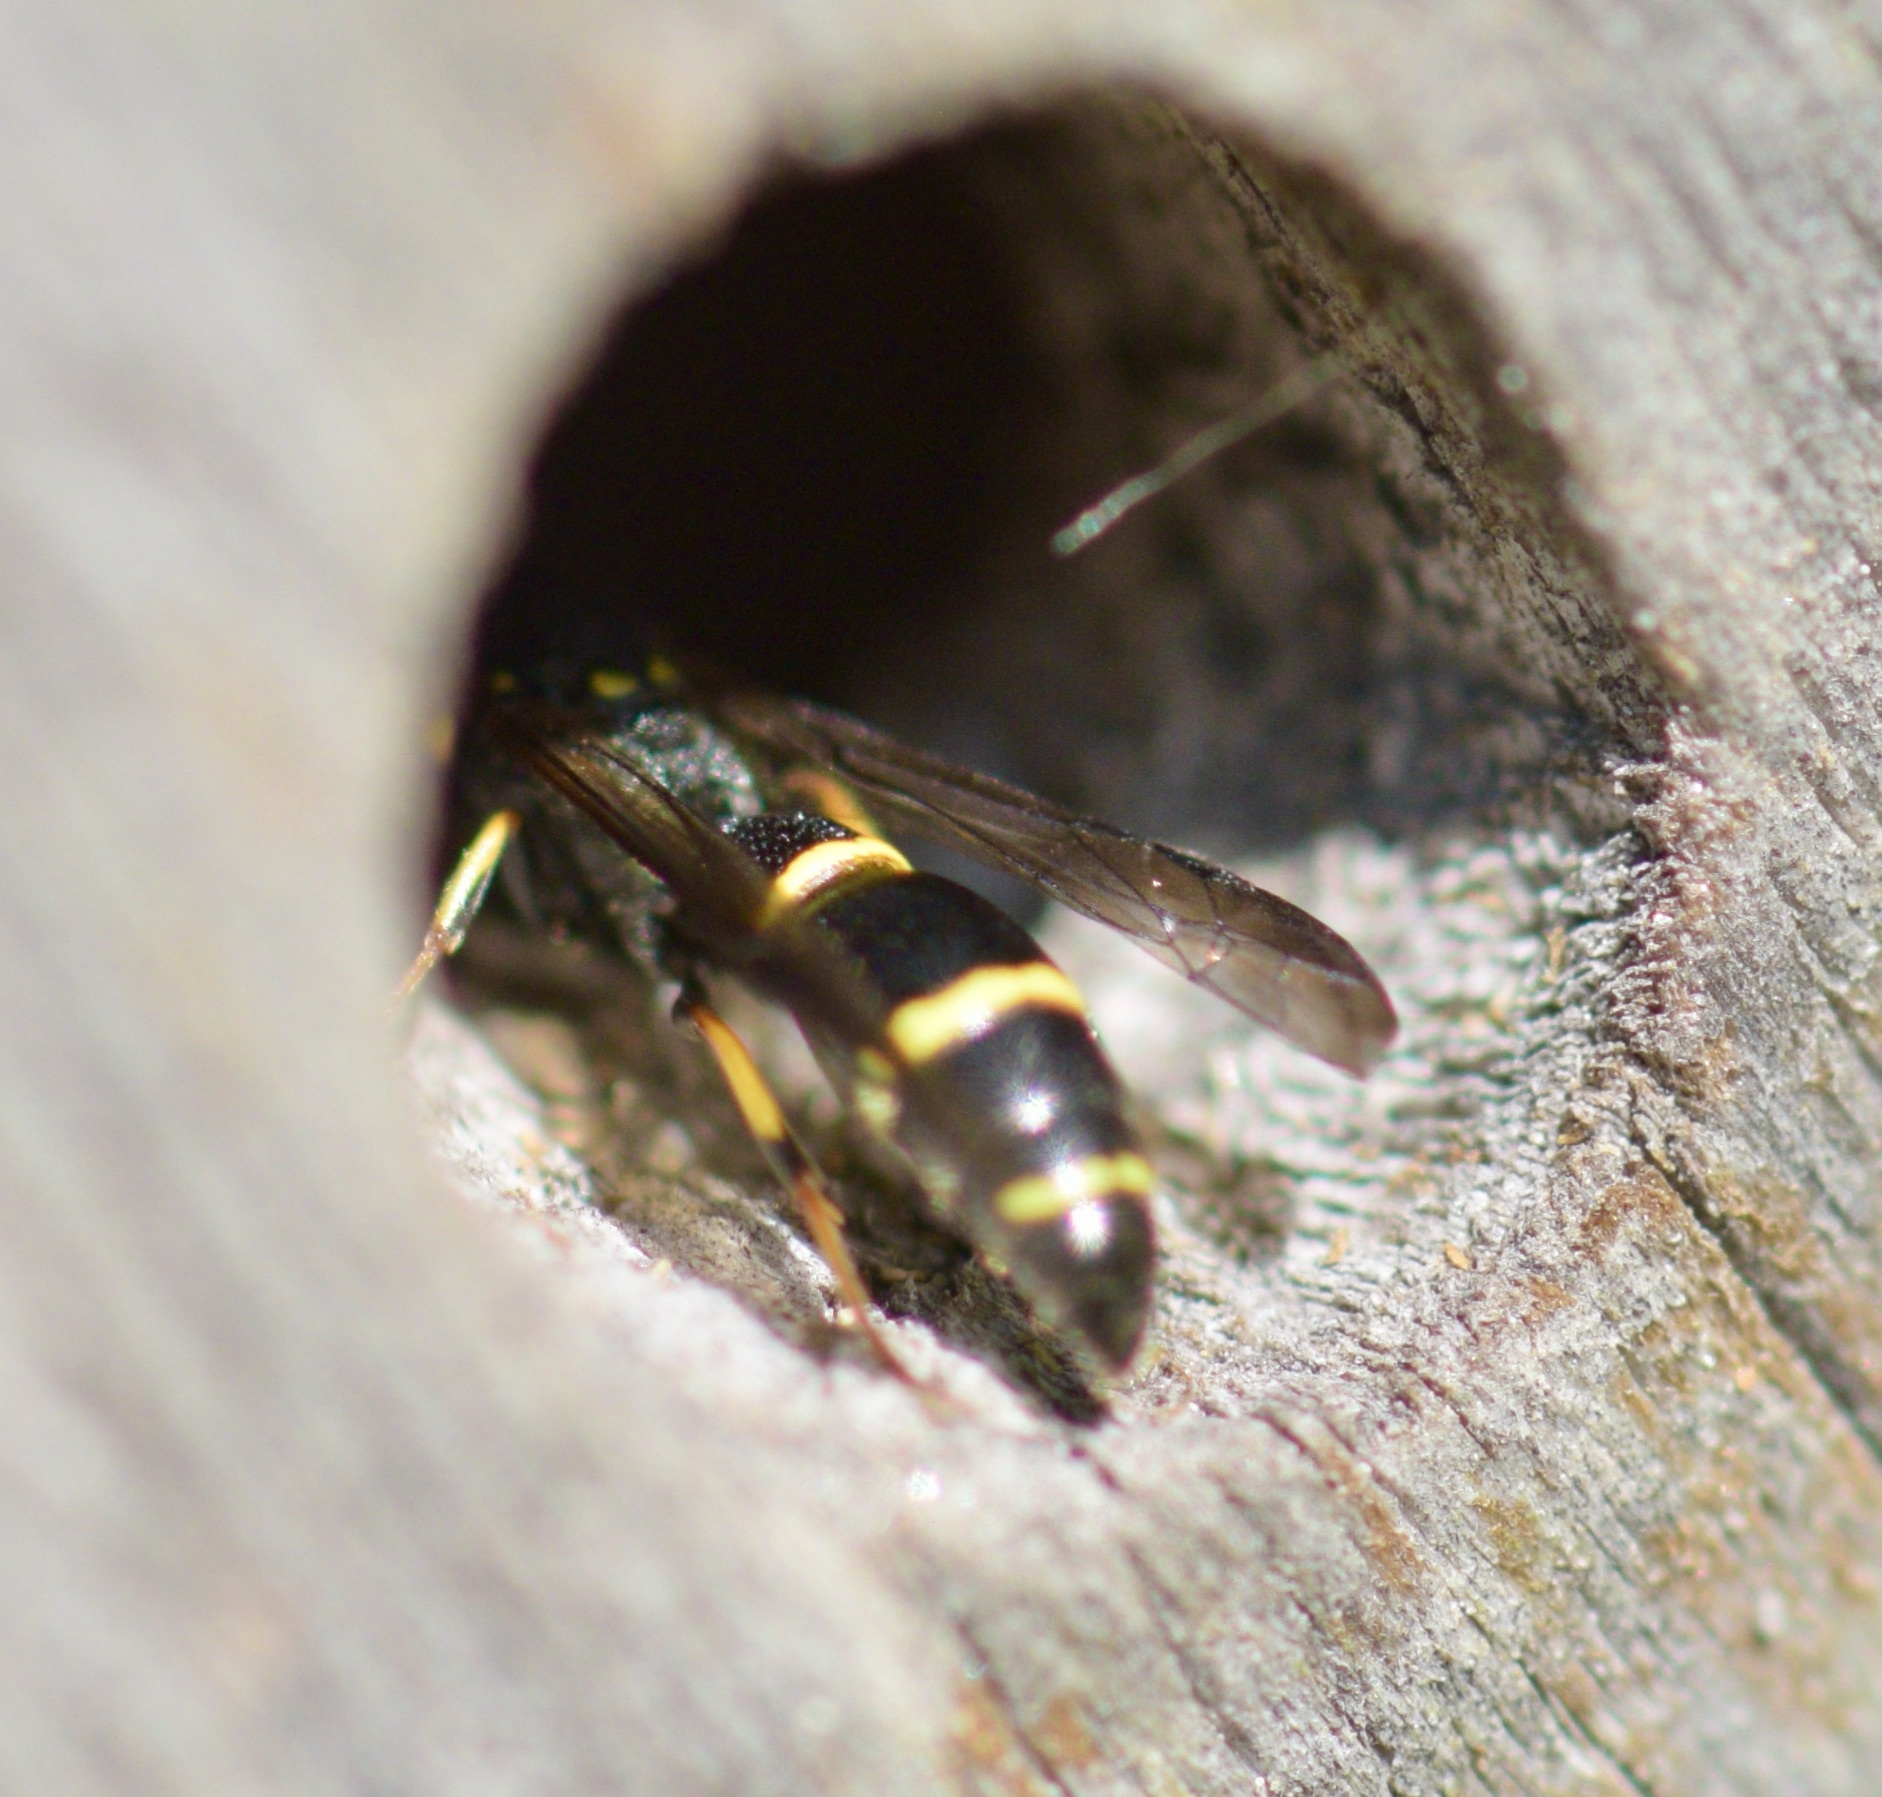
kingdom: Animalia
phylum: Arthropoda
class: Insecta
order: Hymenoptera
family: Eumenidae
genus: Symmorphus
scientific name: Symmorphus
